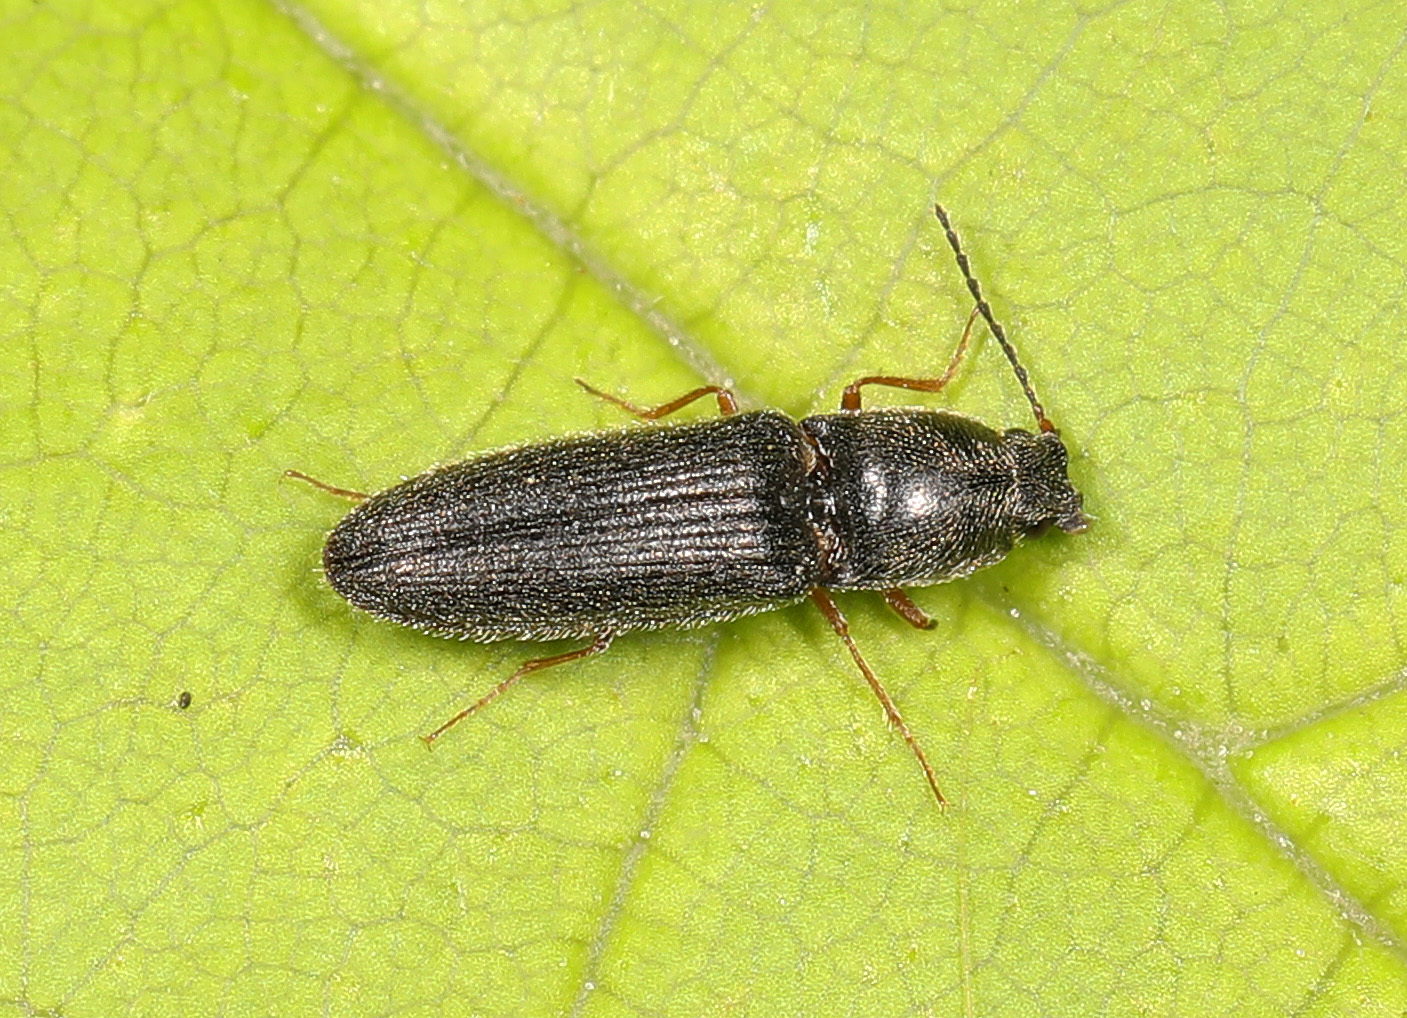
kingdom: Animalia
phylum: Arthropoda
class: Insecta
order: Coleoptera
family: Elateridae
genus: Limonius
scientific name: Limonius quercinus
